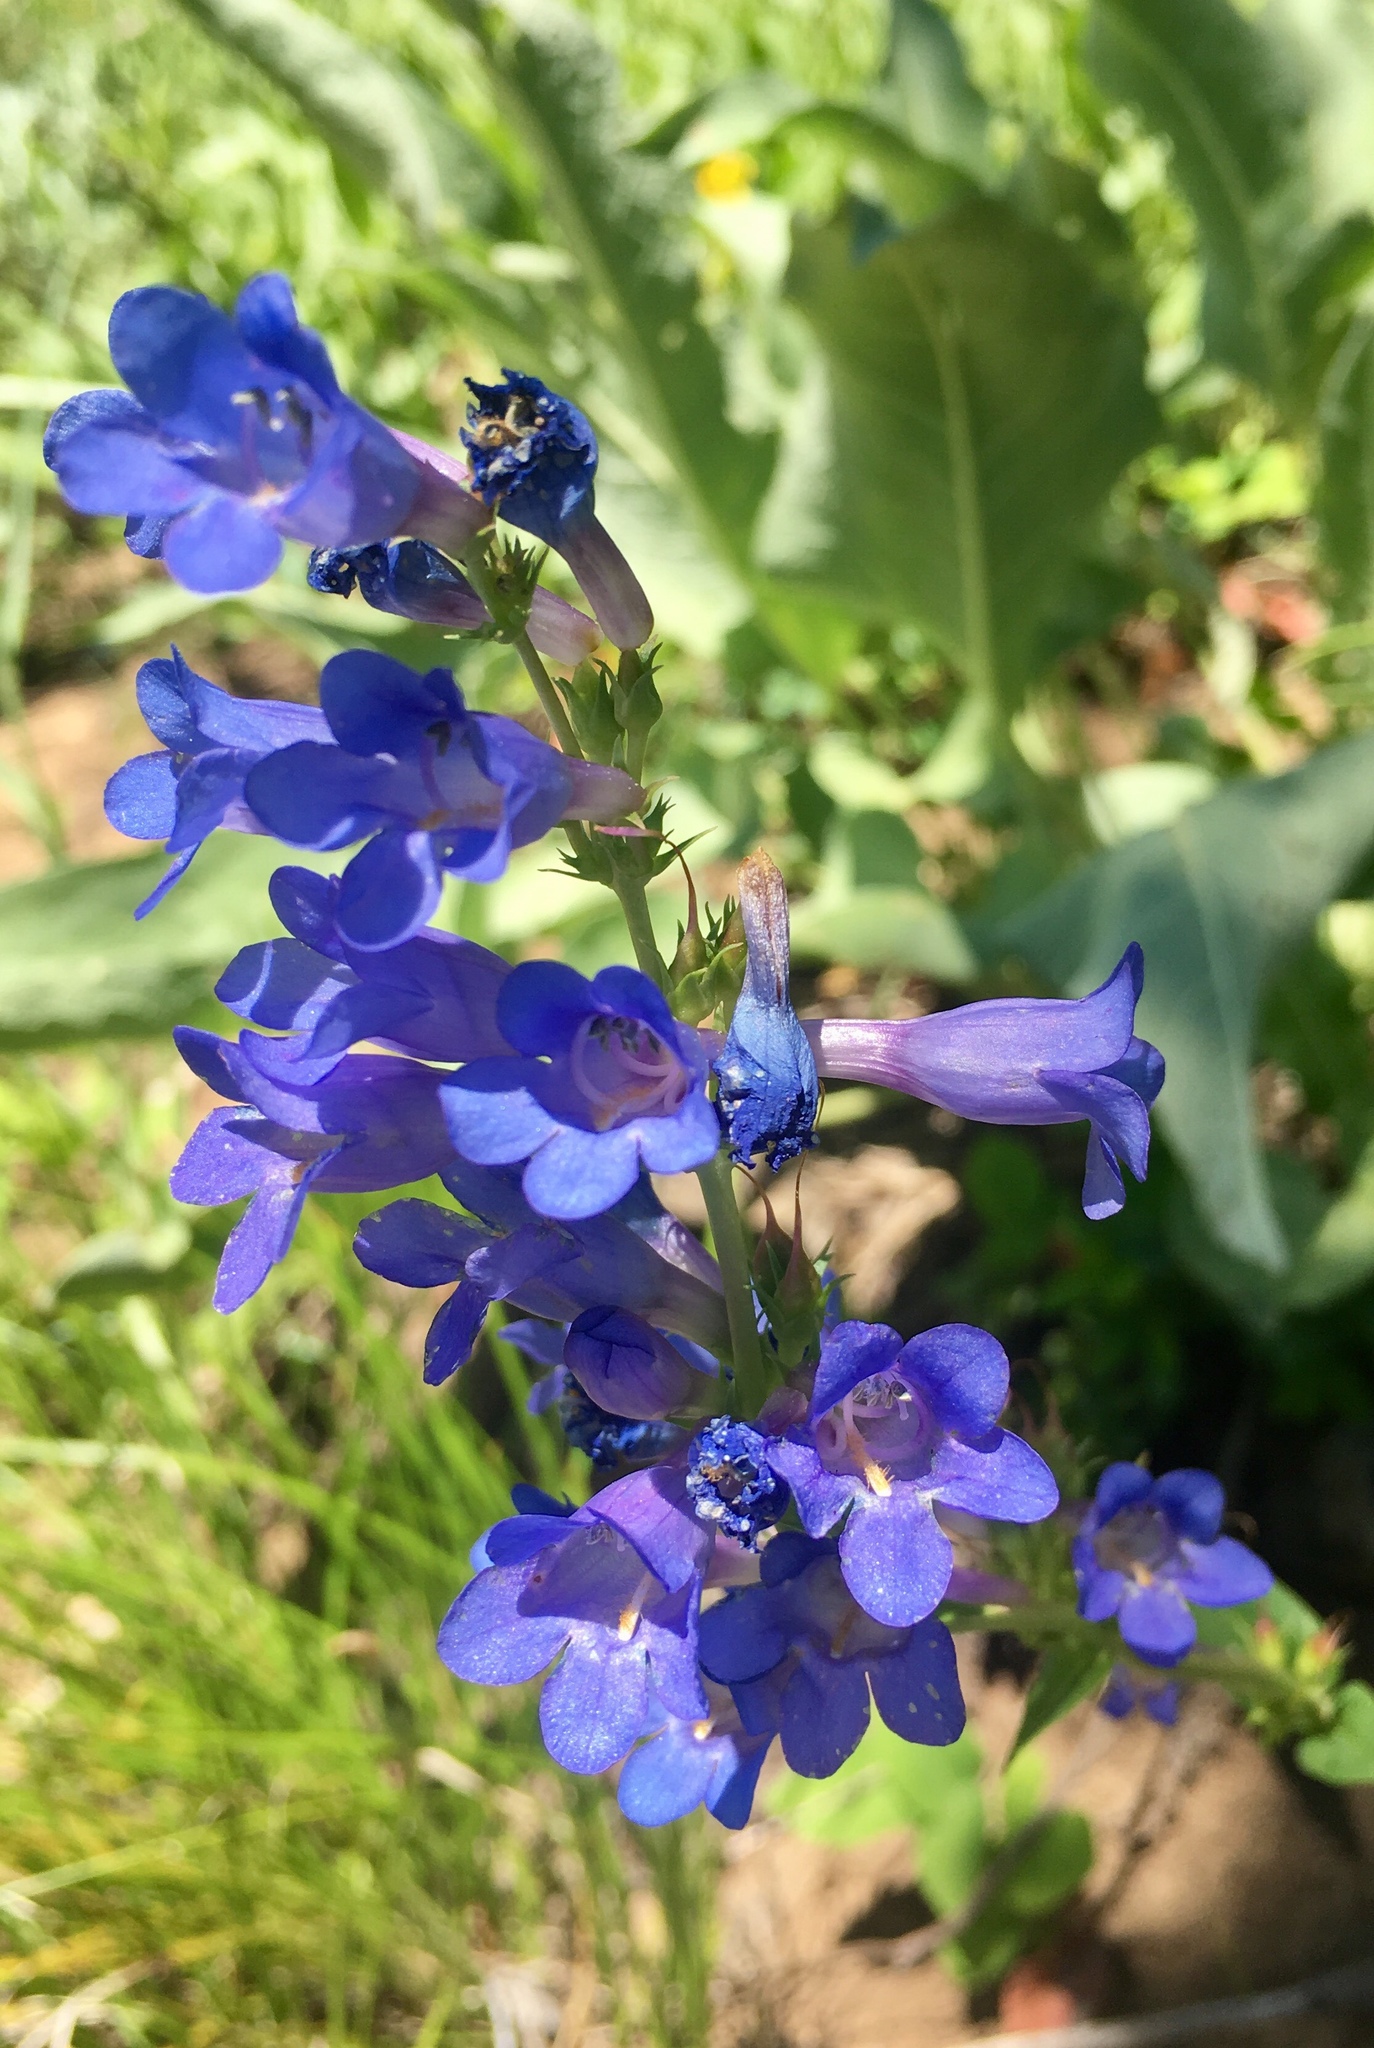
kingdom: Plantae
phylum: Tracheophyta
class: Magnoliopsida
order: Lamiales
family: Plantaginaceae
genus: Penstemon
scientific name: Penstemon
